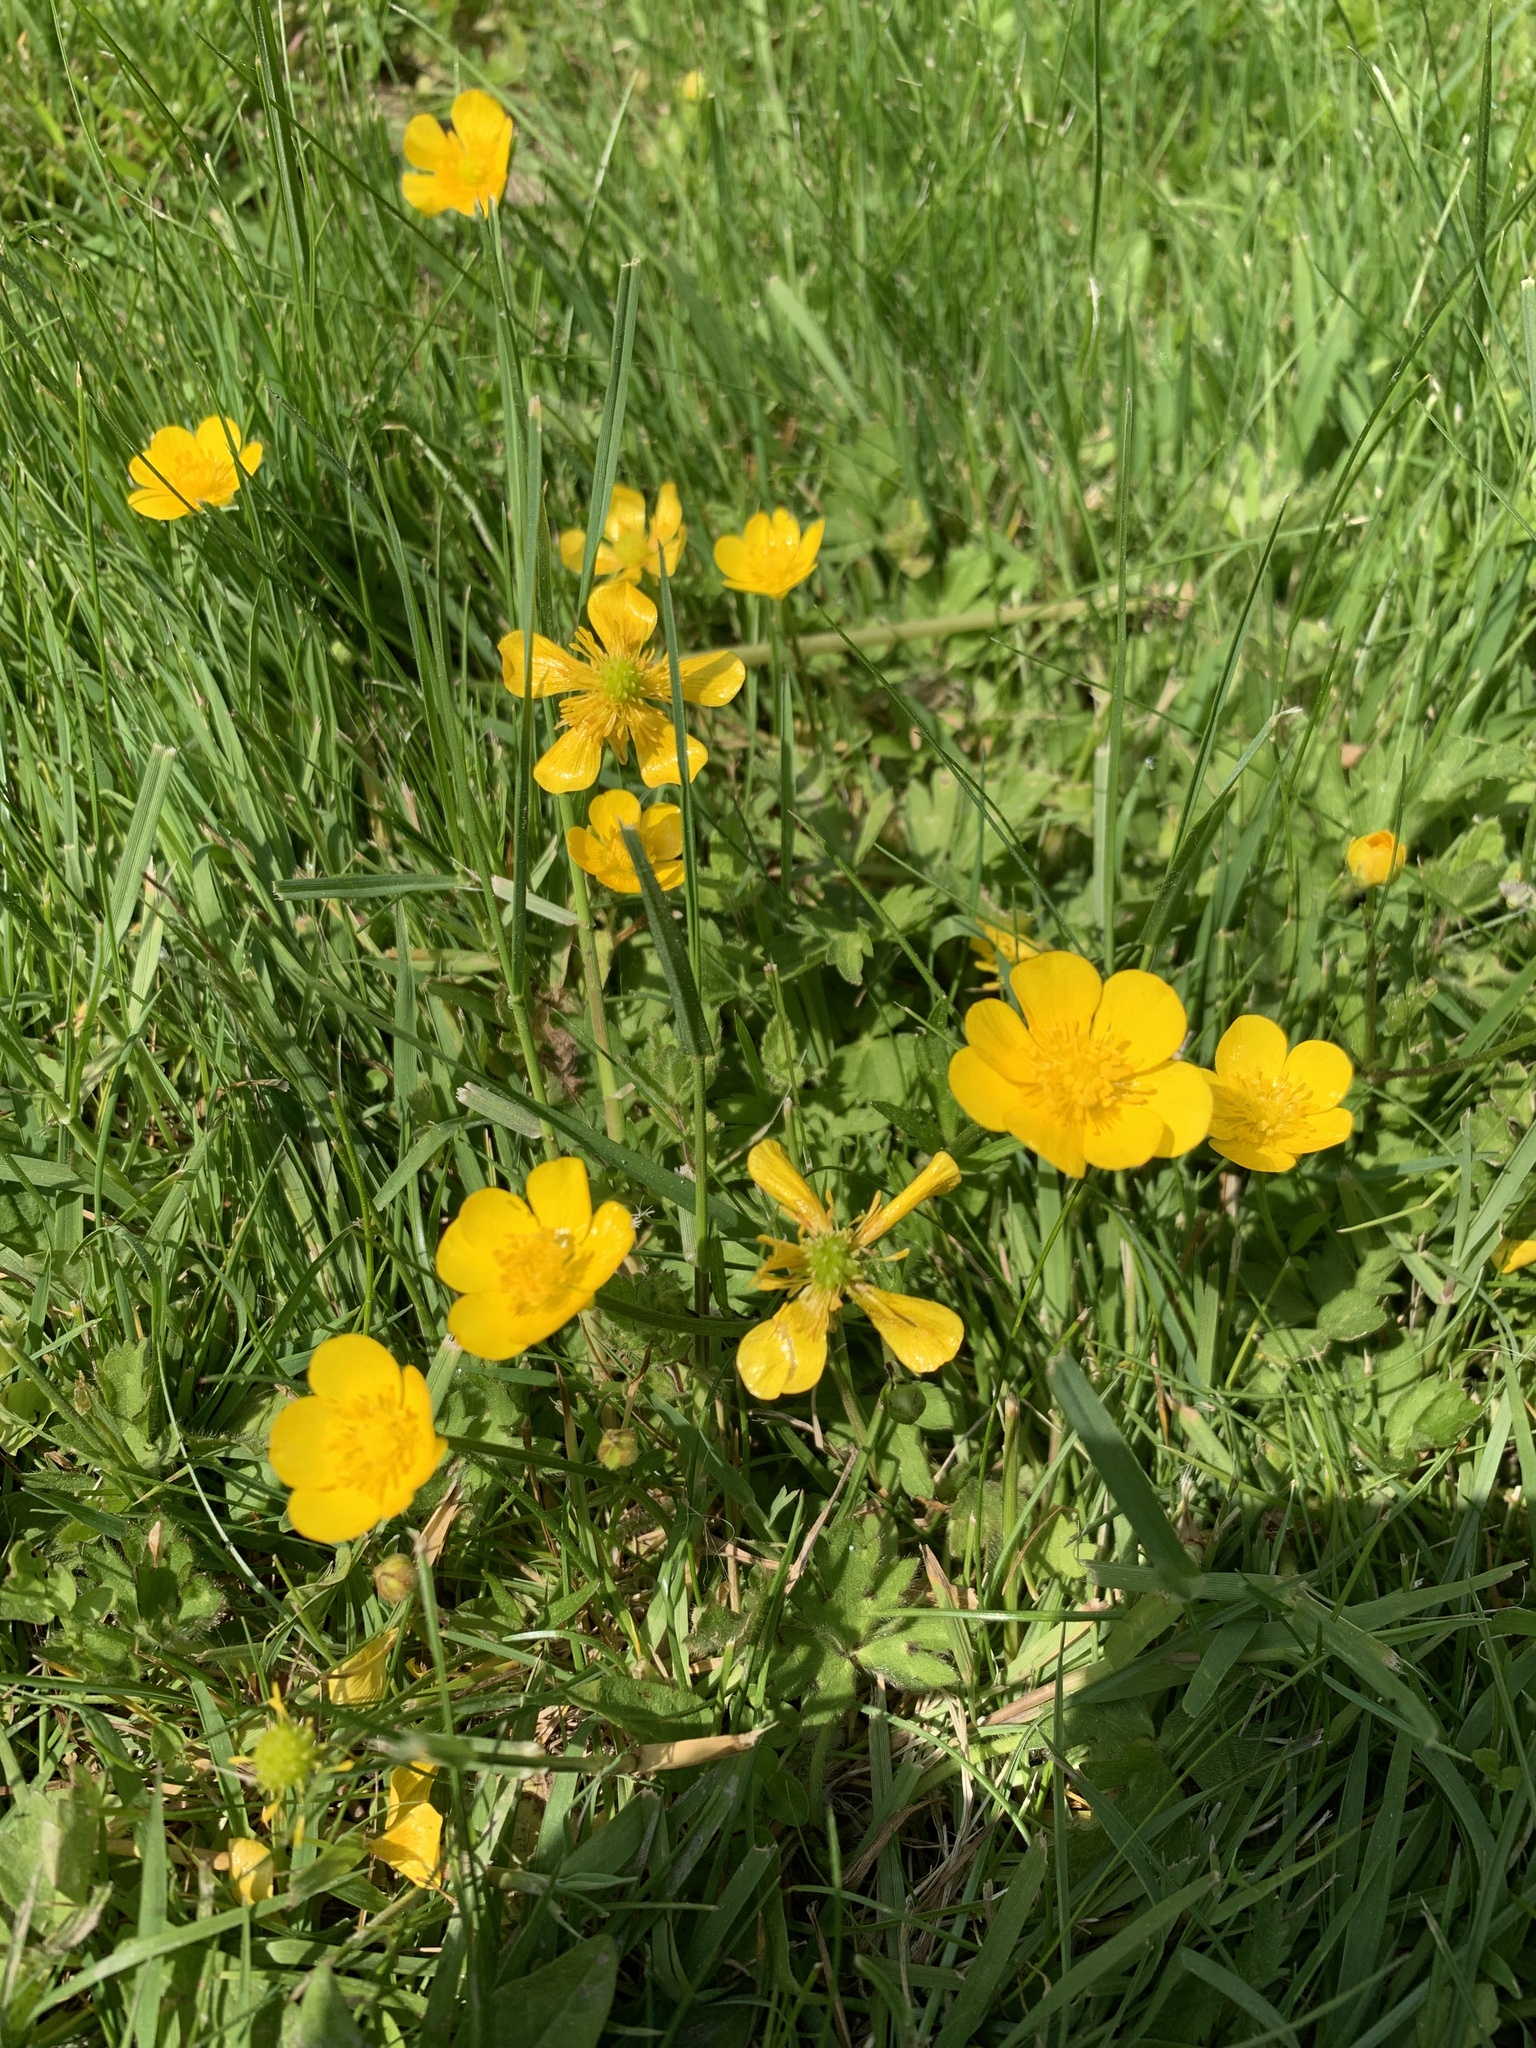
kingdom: Plantae
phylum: Tracheophyta
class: Magnoliopsida
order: Ranunculales
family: Ranunculaceae
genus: Ranunculus
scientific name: Ranunculus repens
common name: Creeping buttercup
